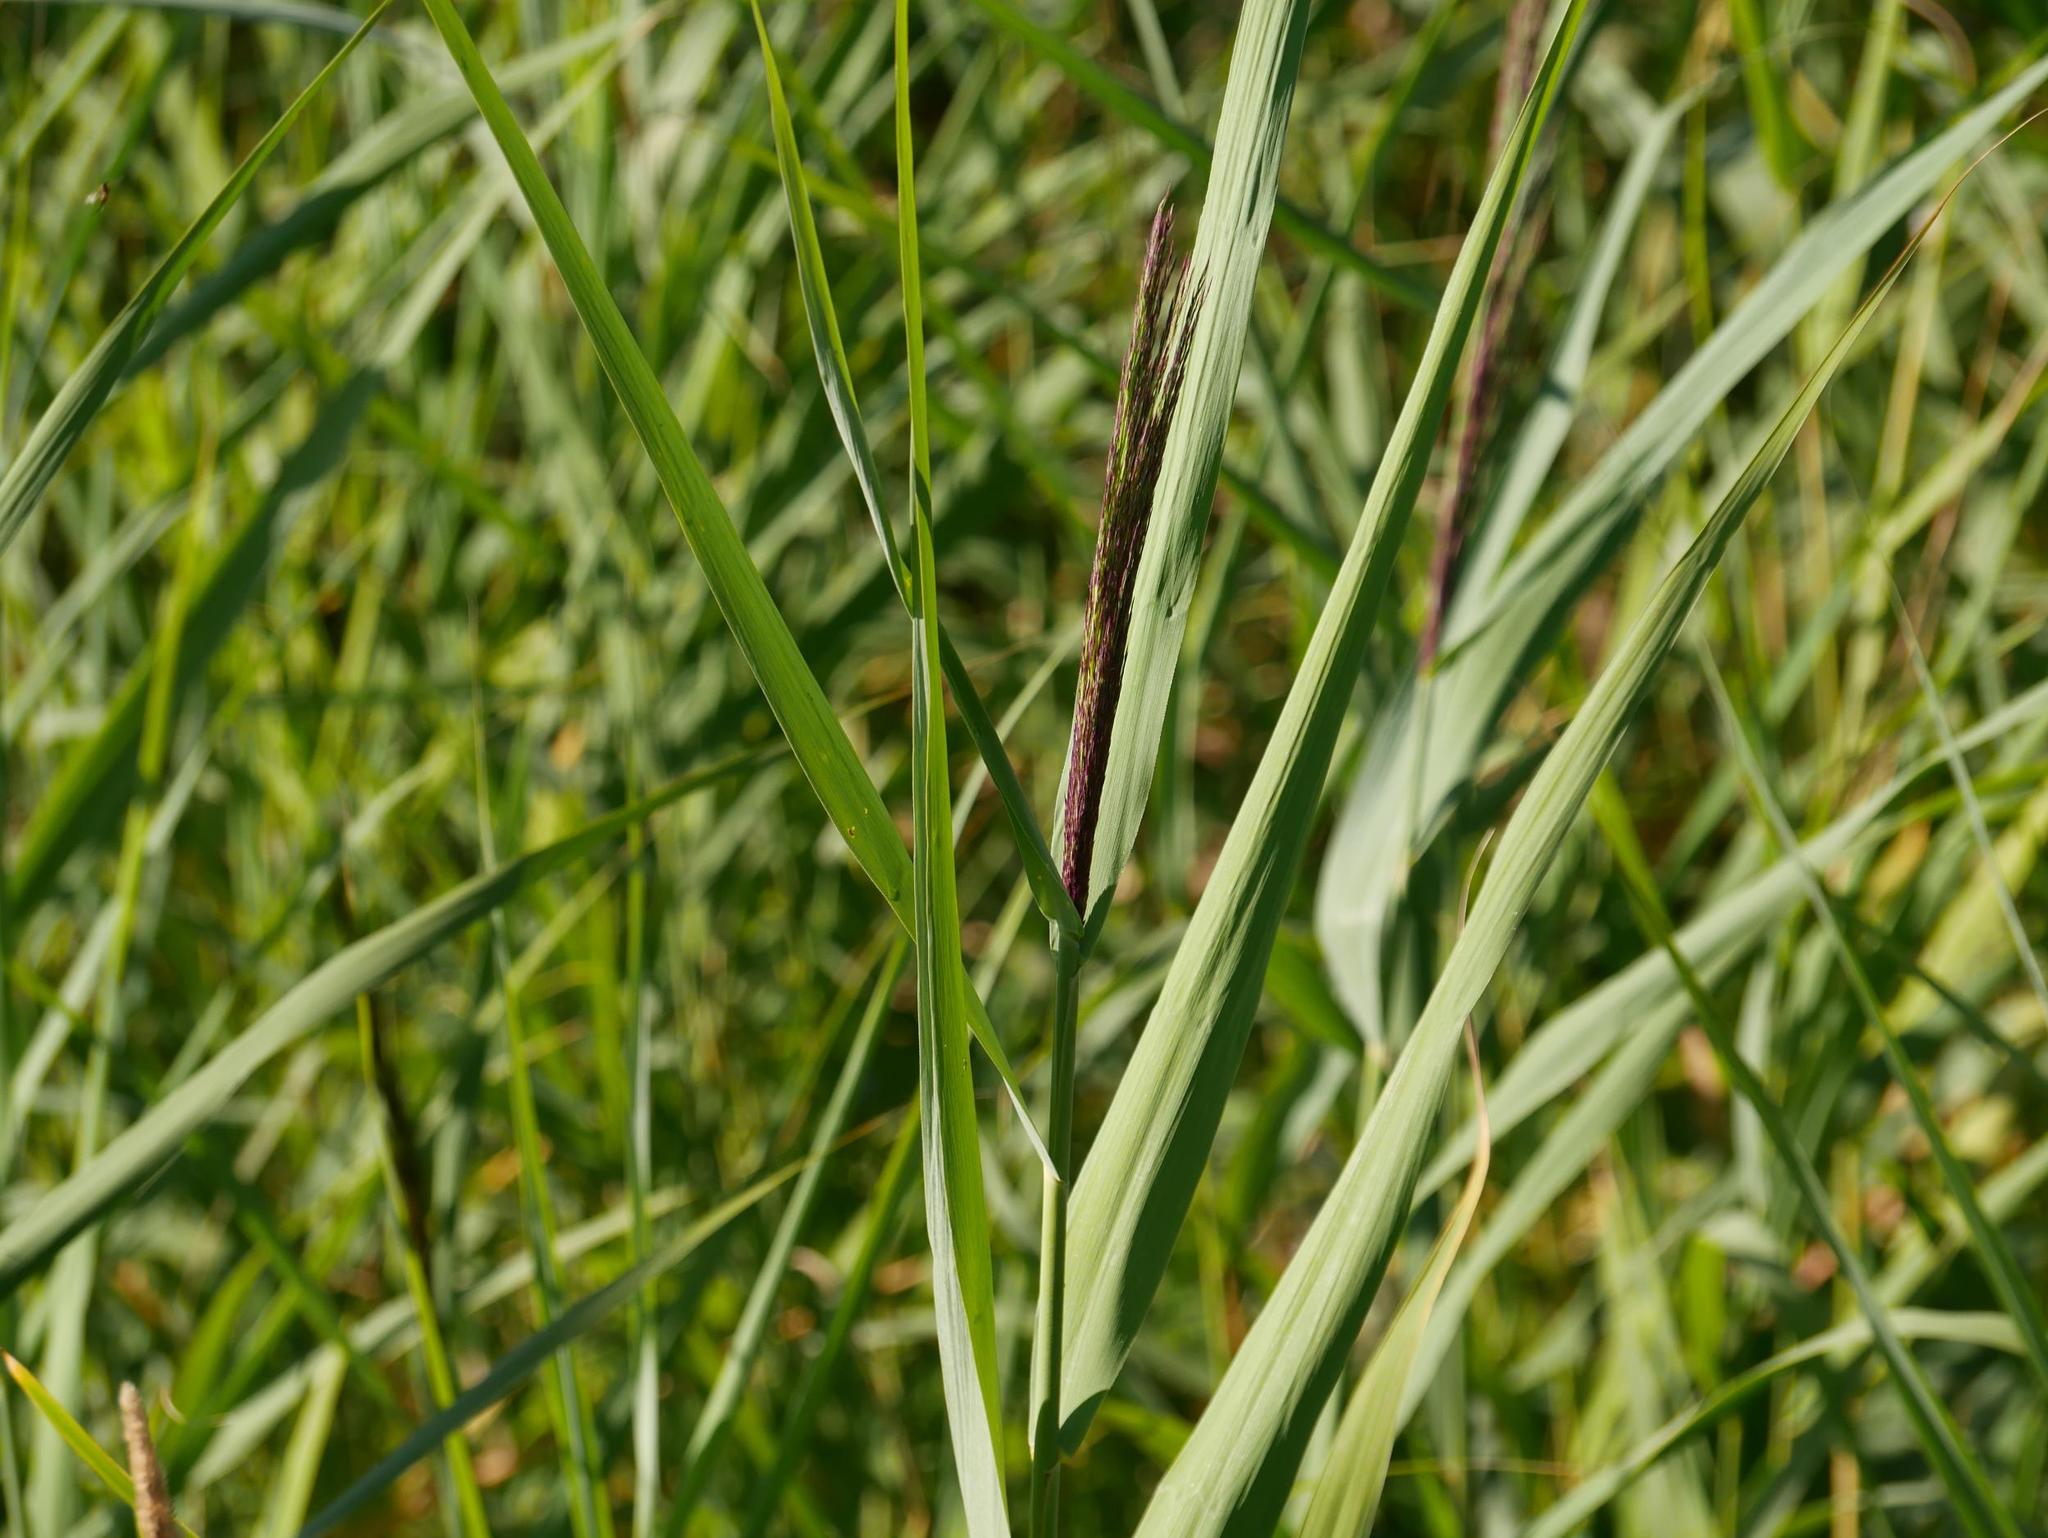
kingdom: Plantae
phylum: Tracheophyta
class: Liliopsida
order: Poales
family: Poaceae
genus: Phragmites
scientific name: Phragmites australis
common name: Common reed
